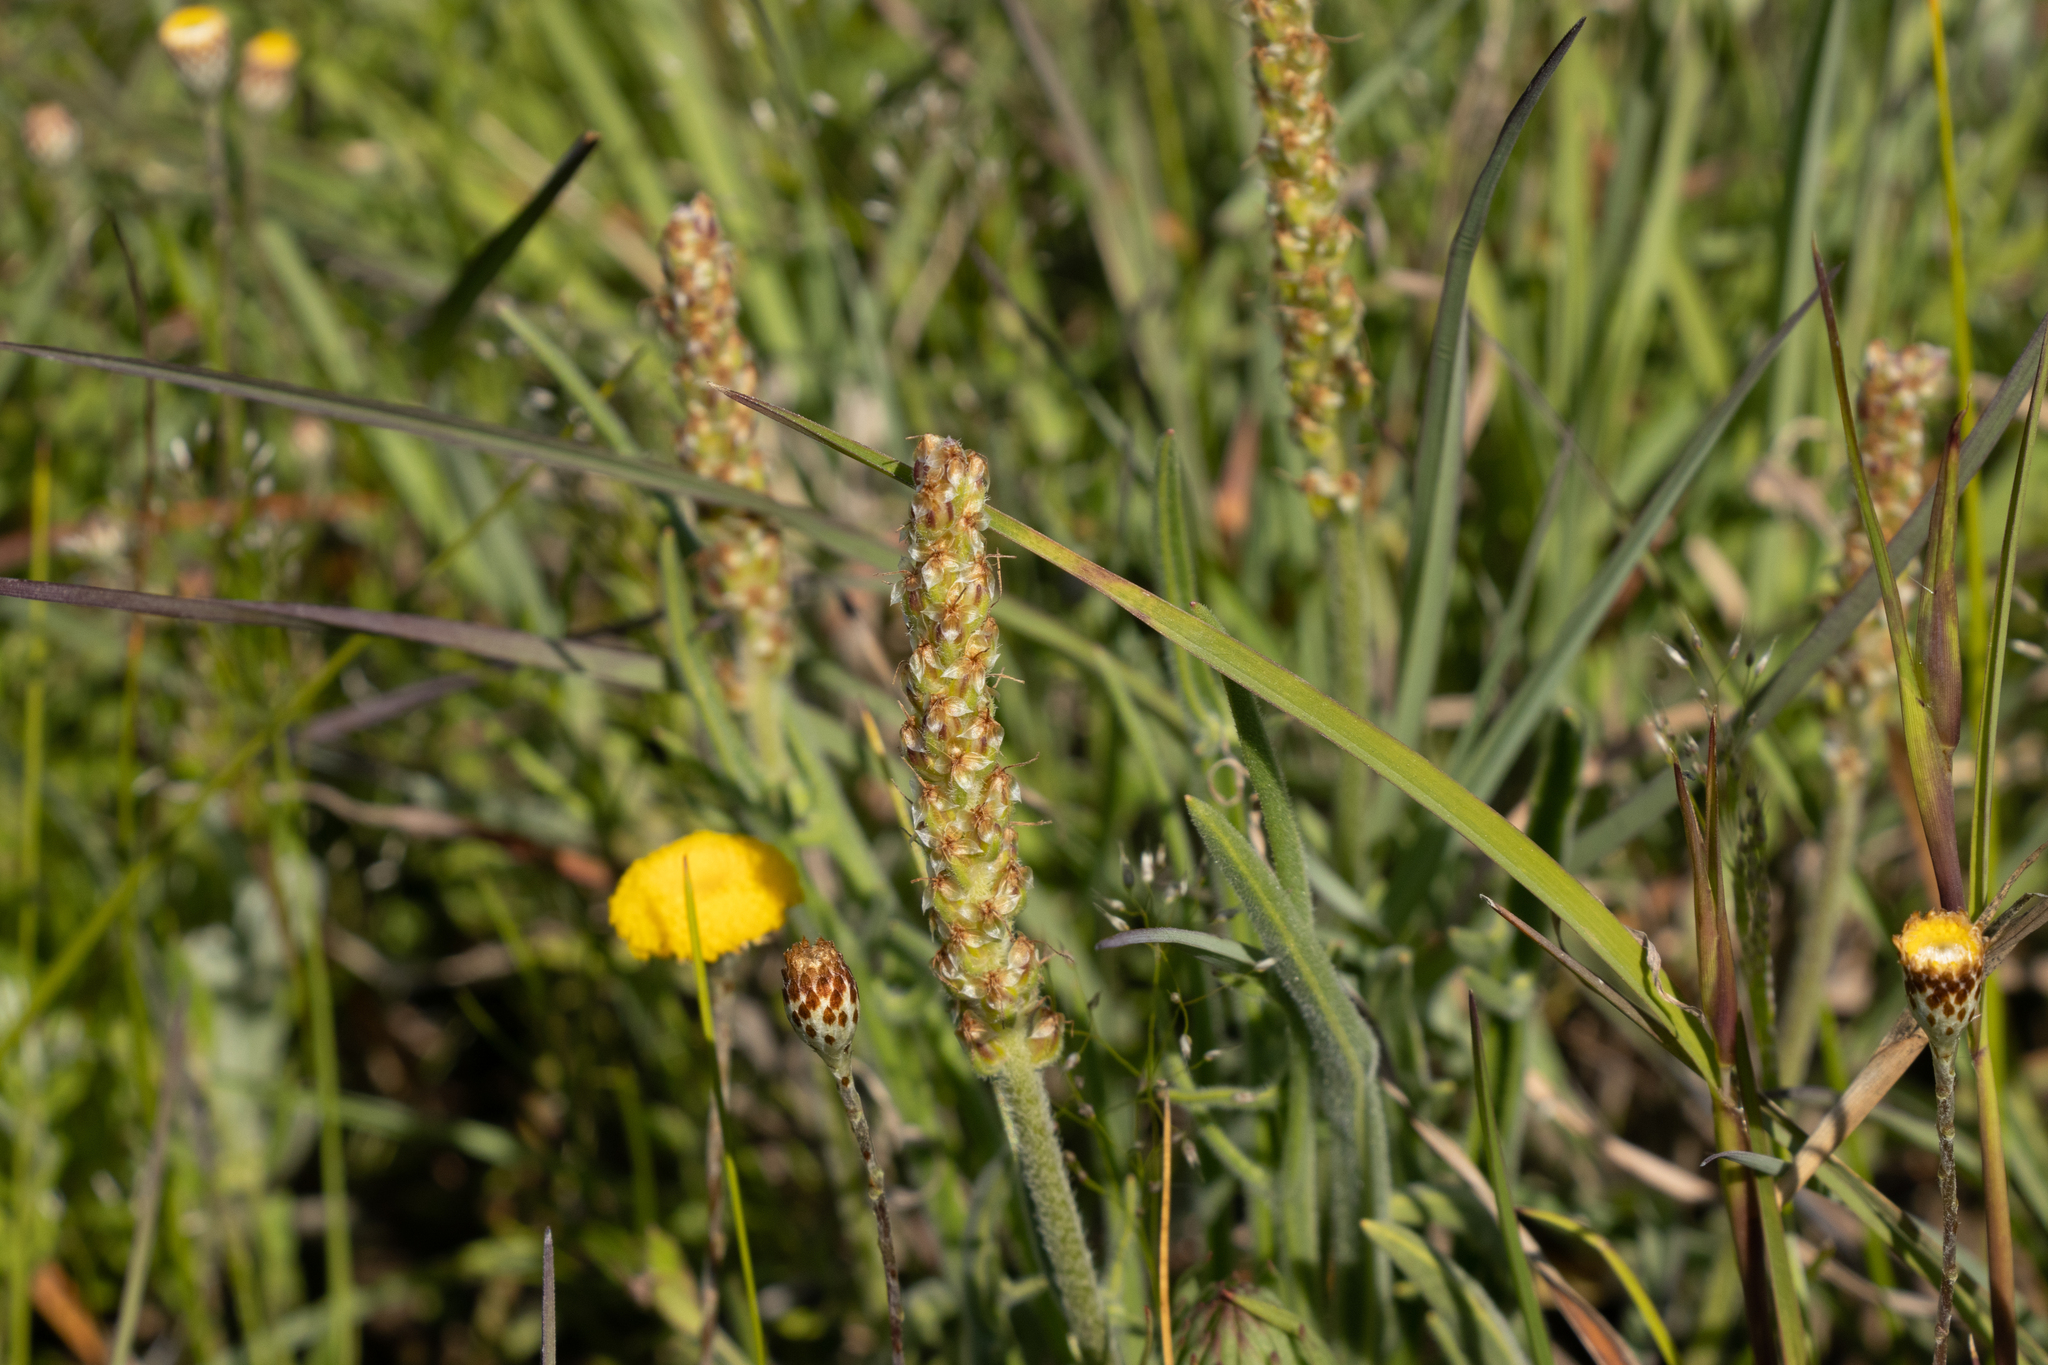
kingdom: Plantae
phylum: Tracheophyta
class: Magnoliopsida
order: Lamiales
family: Plantaginaceae
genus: Plantago
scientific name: Plantago varia
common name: Variable plantain
